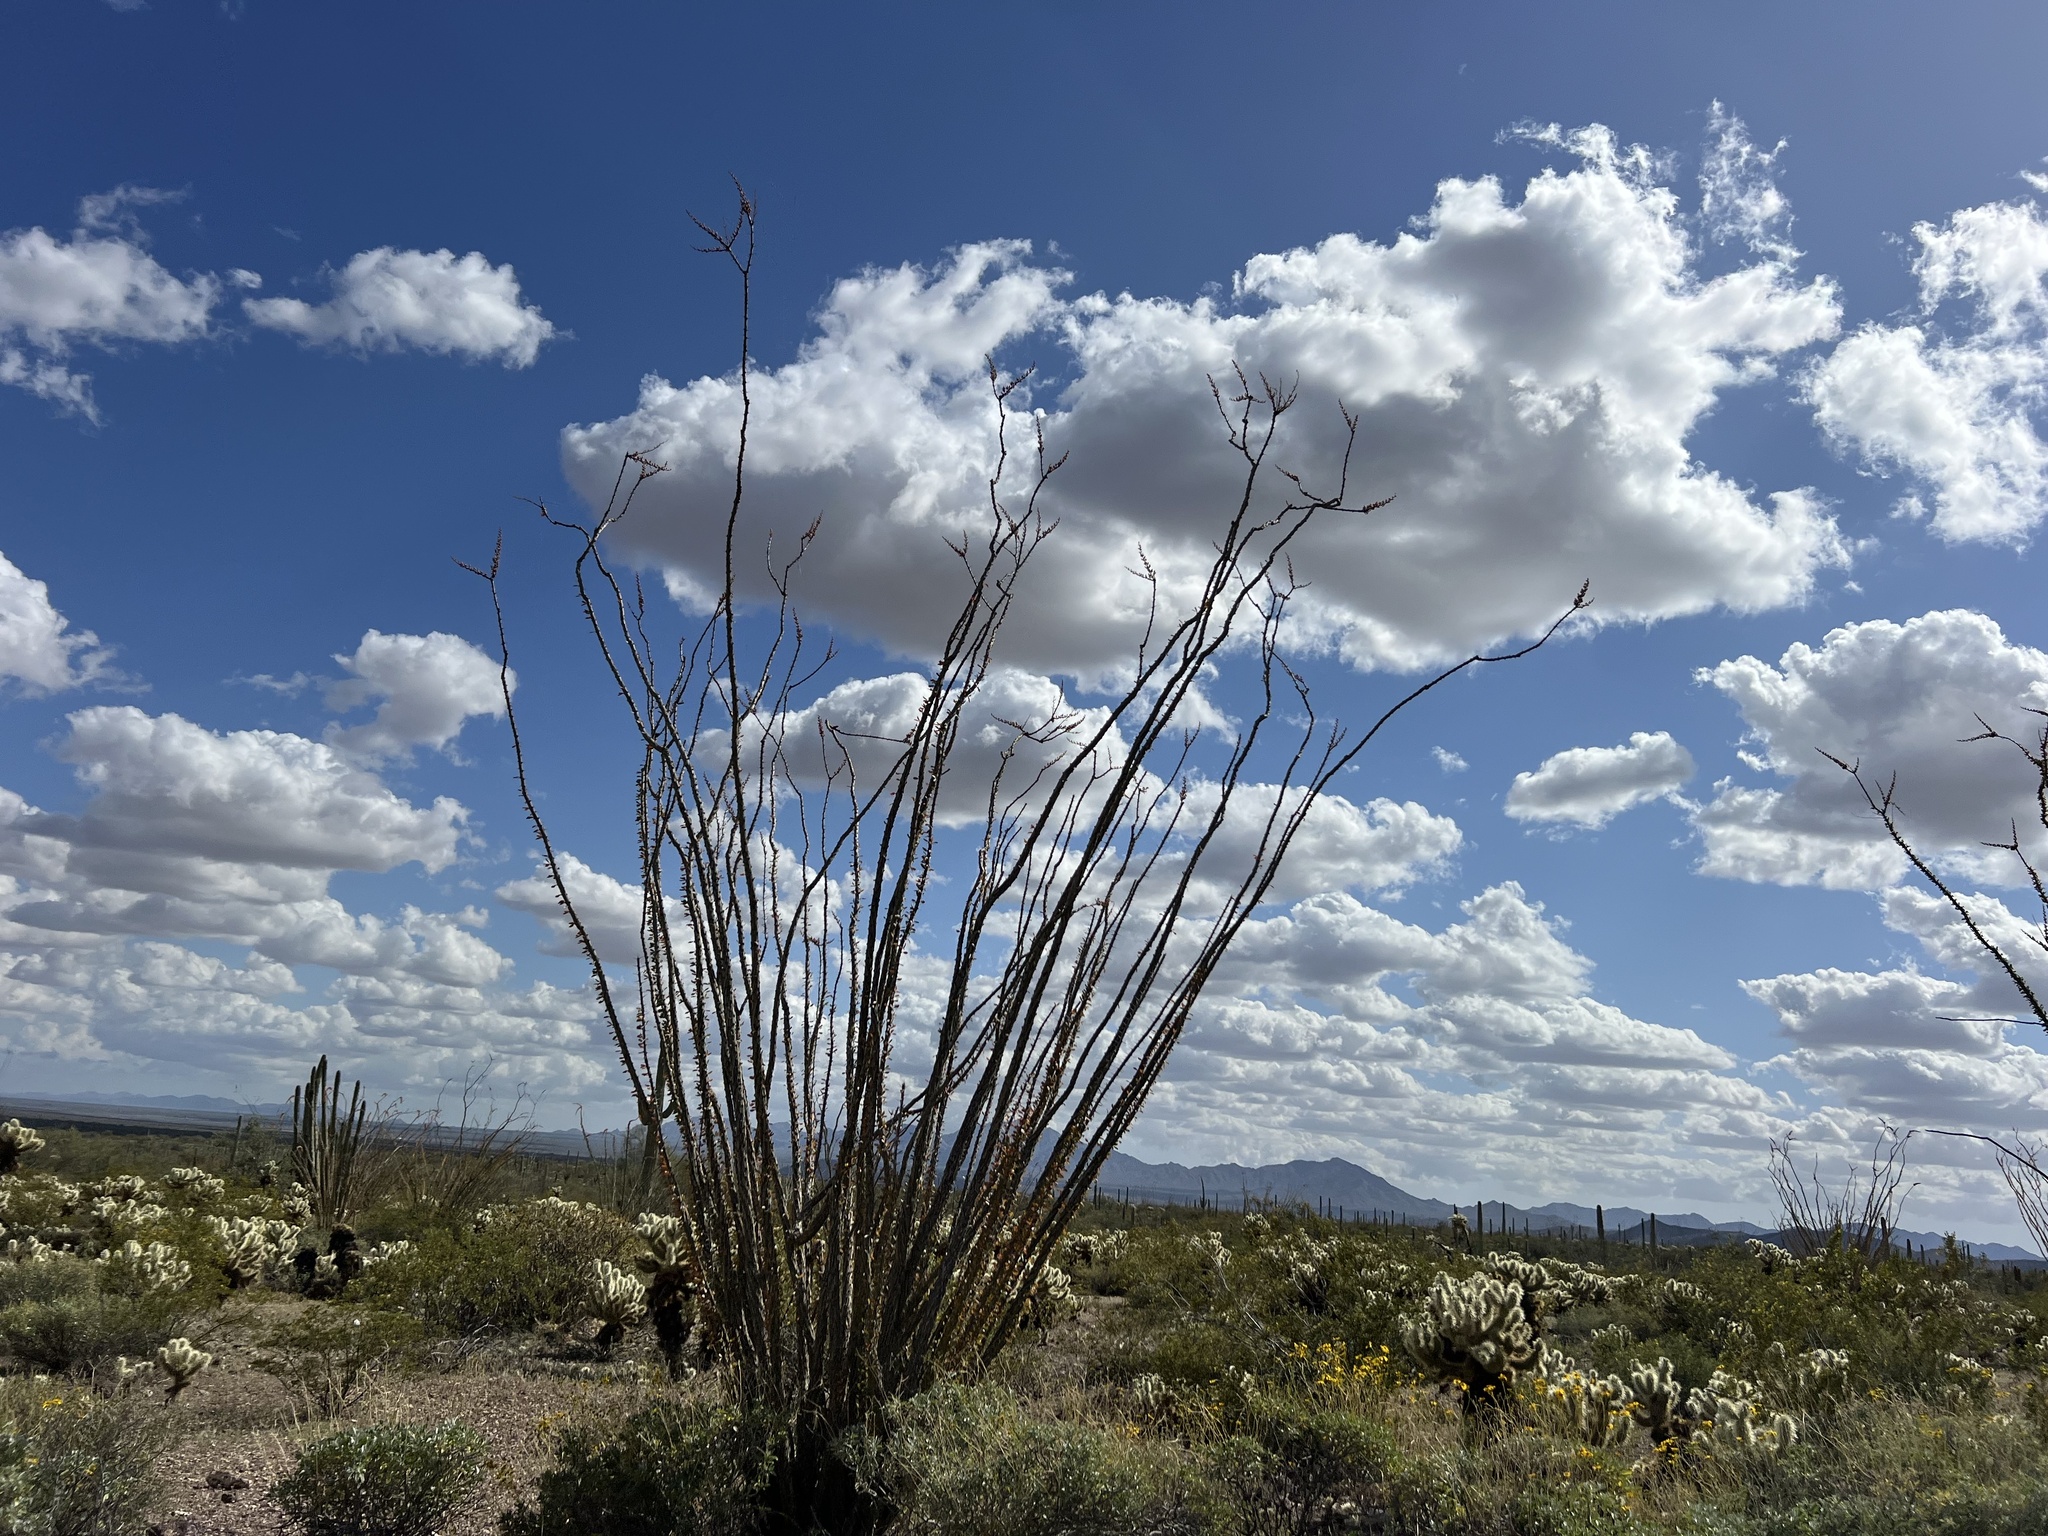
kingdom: Plantae
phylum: Tracheophyta
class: Magnoliopsida
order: Ericales
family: Fouquieriaceae
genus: Fouquieria
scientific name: Fouquieria splendens
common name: Vine-cactus
